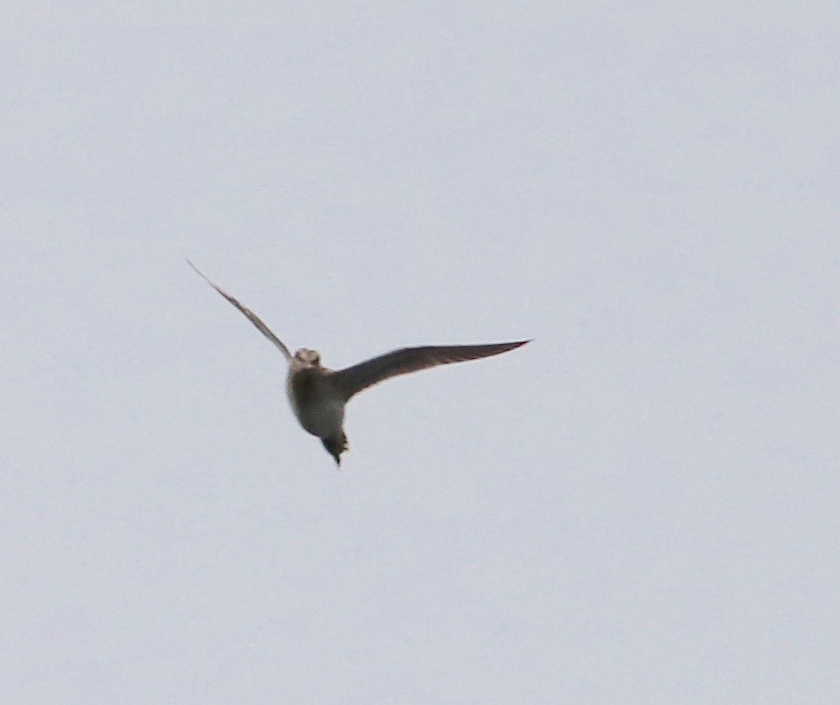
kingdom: Animalia
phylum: Chordata
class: Aves
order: Charadriiformes
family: Scolopacidae
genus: Gallinago
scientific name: Gallinago gallinago
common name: Common snipe
